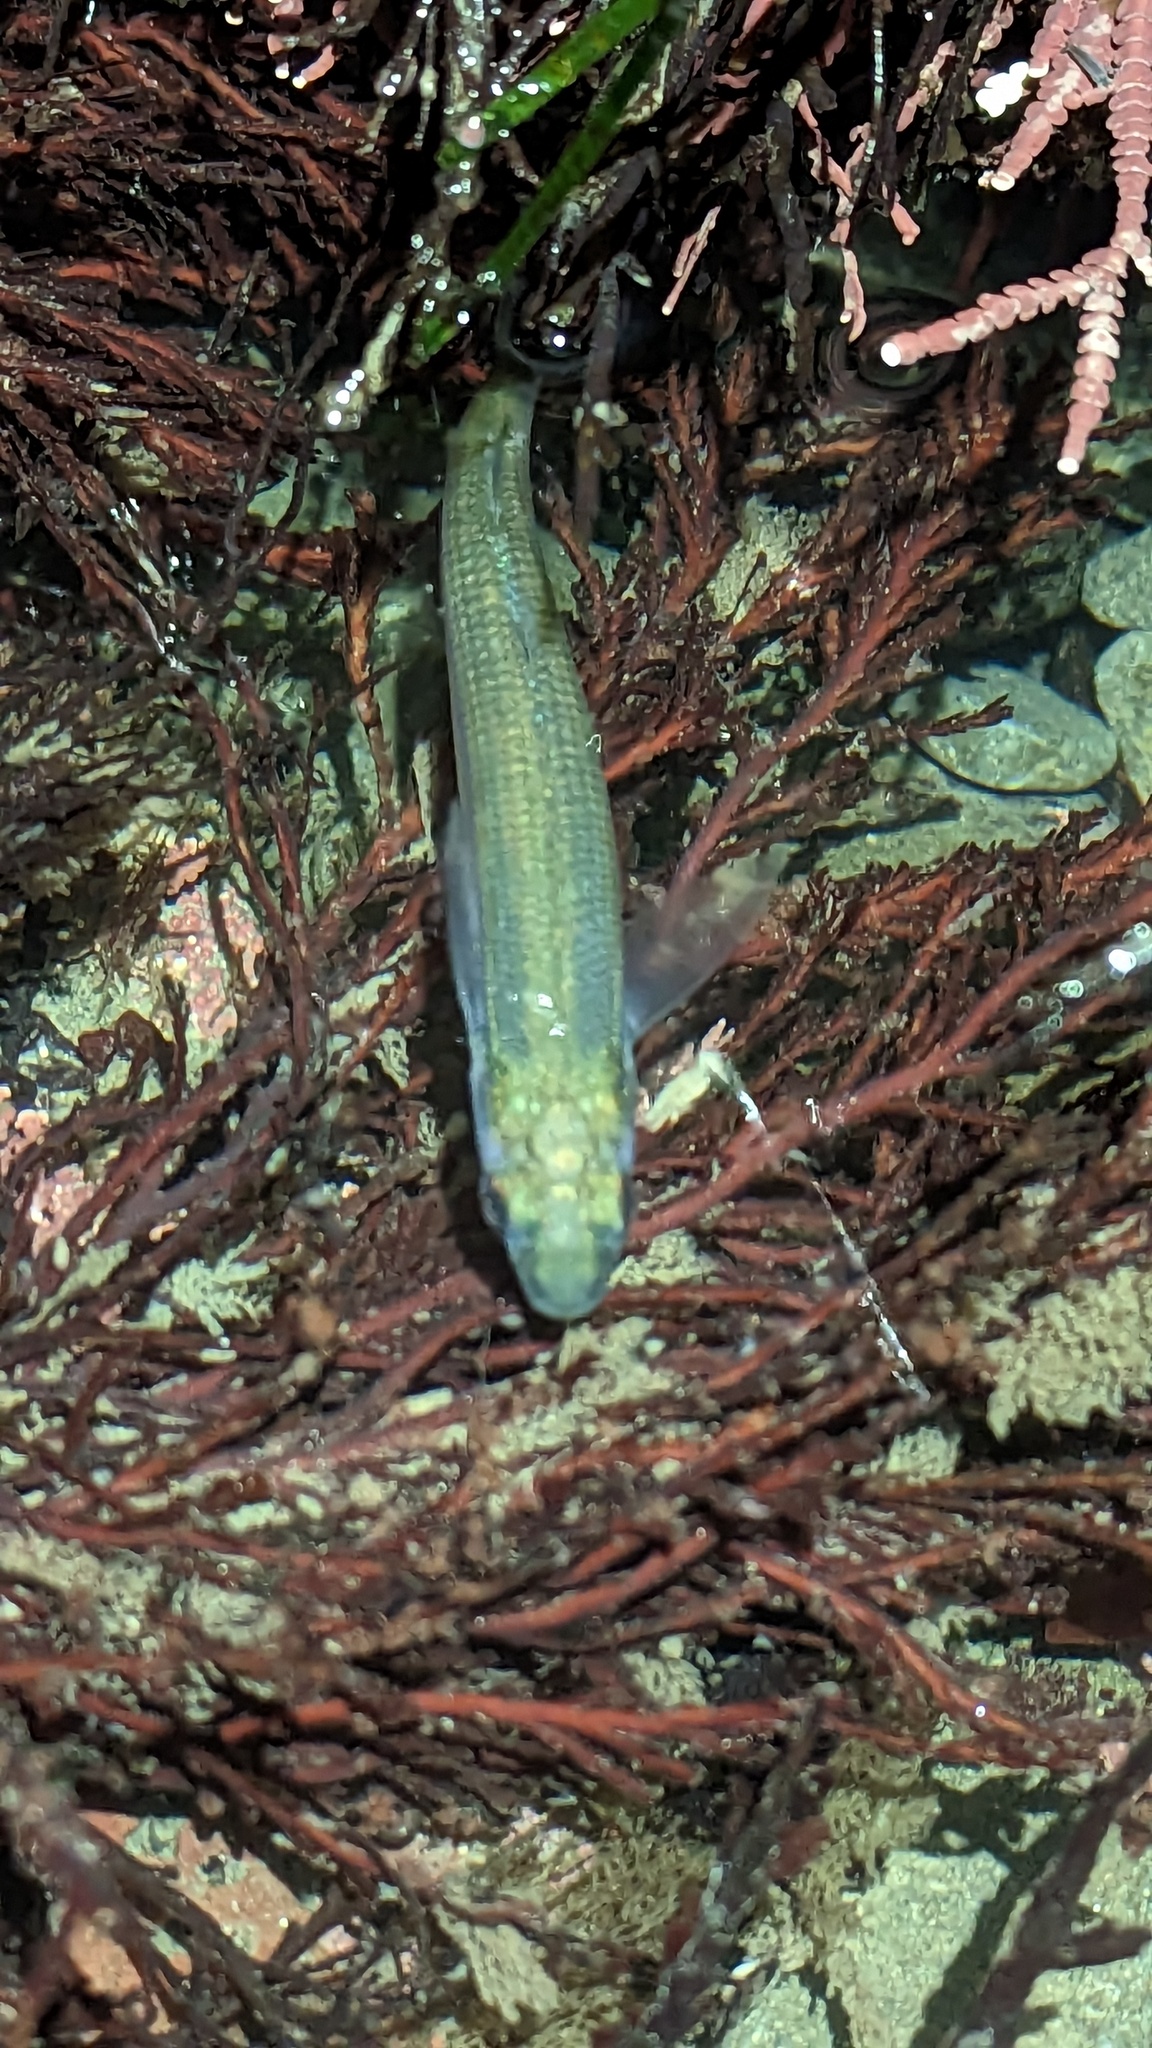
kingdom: Animalia
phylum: Chordata
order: Atheriniformes
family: Atherinopsidae
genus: Atherinops
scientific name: Atherinops affinis
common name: Topsmelt
